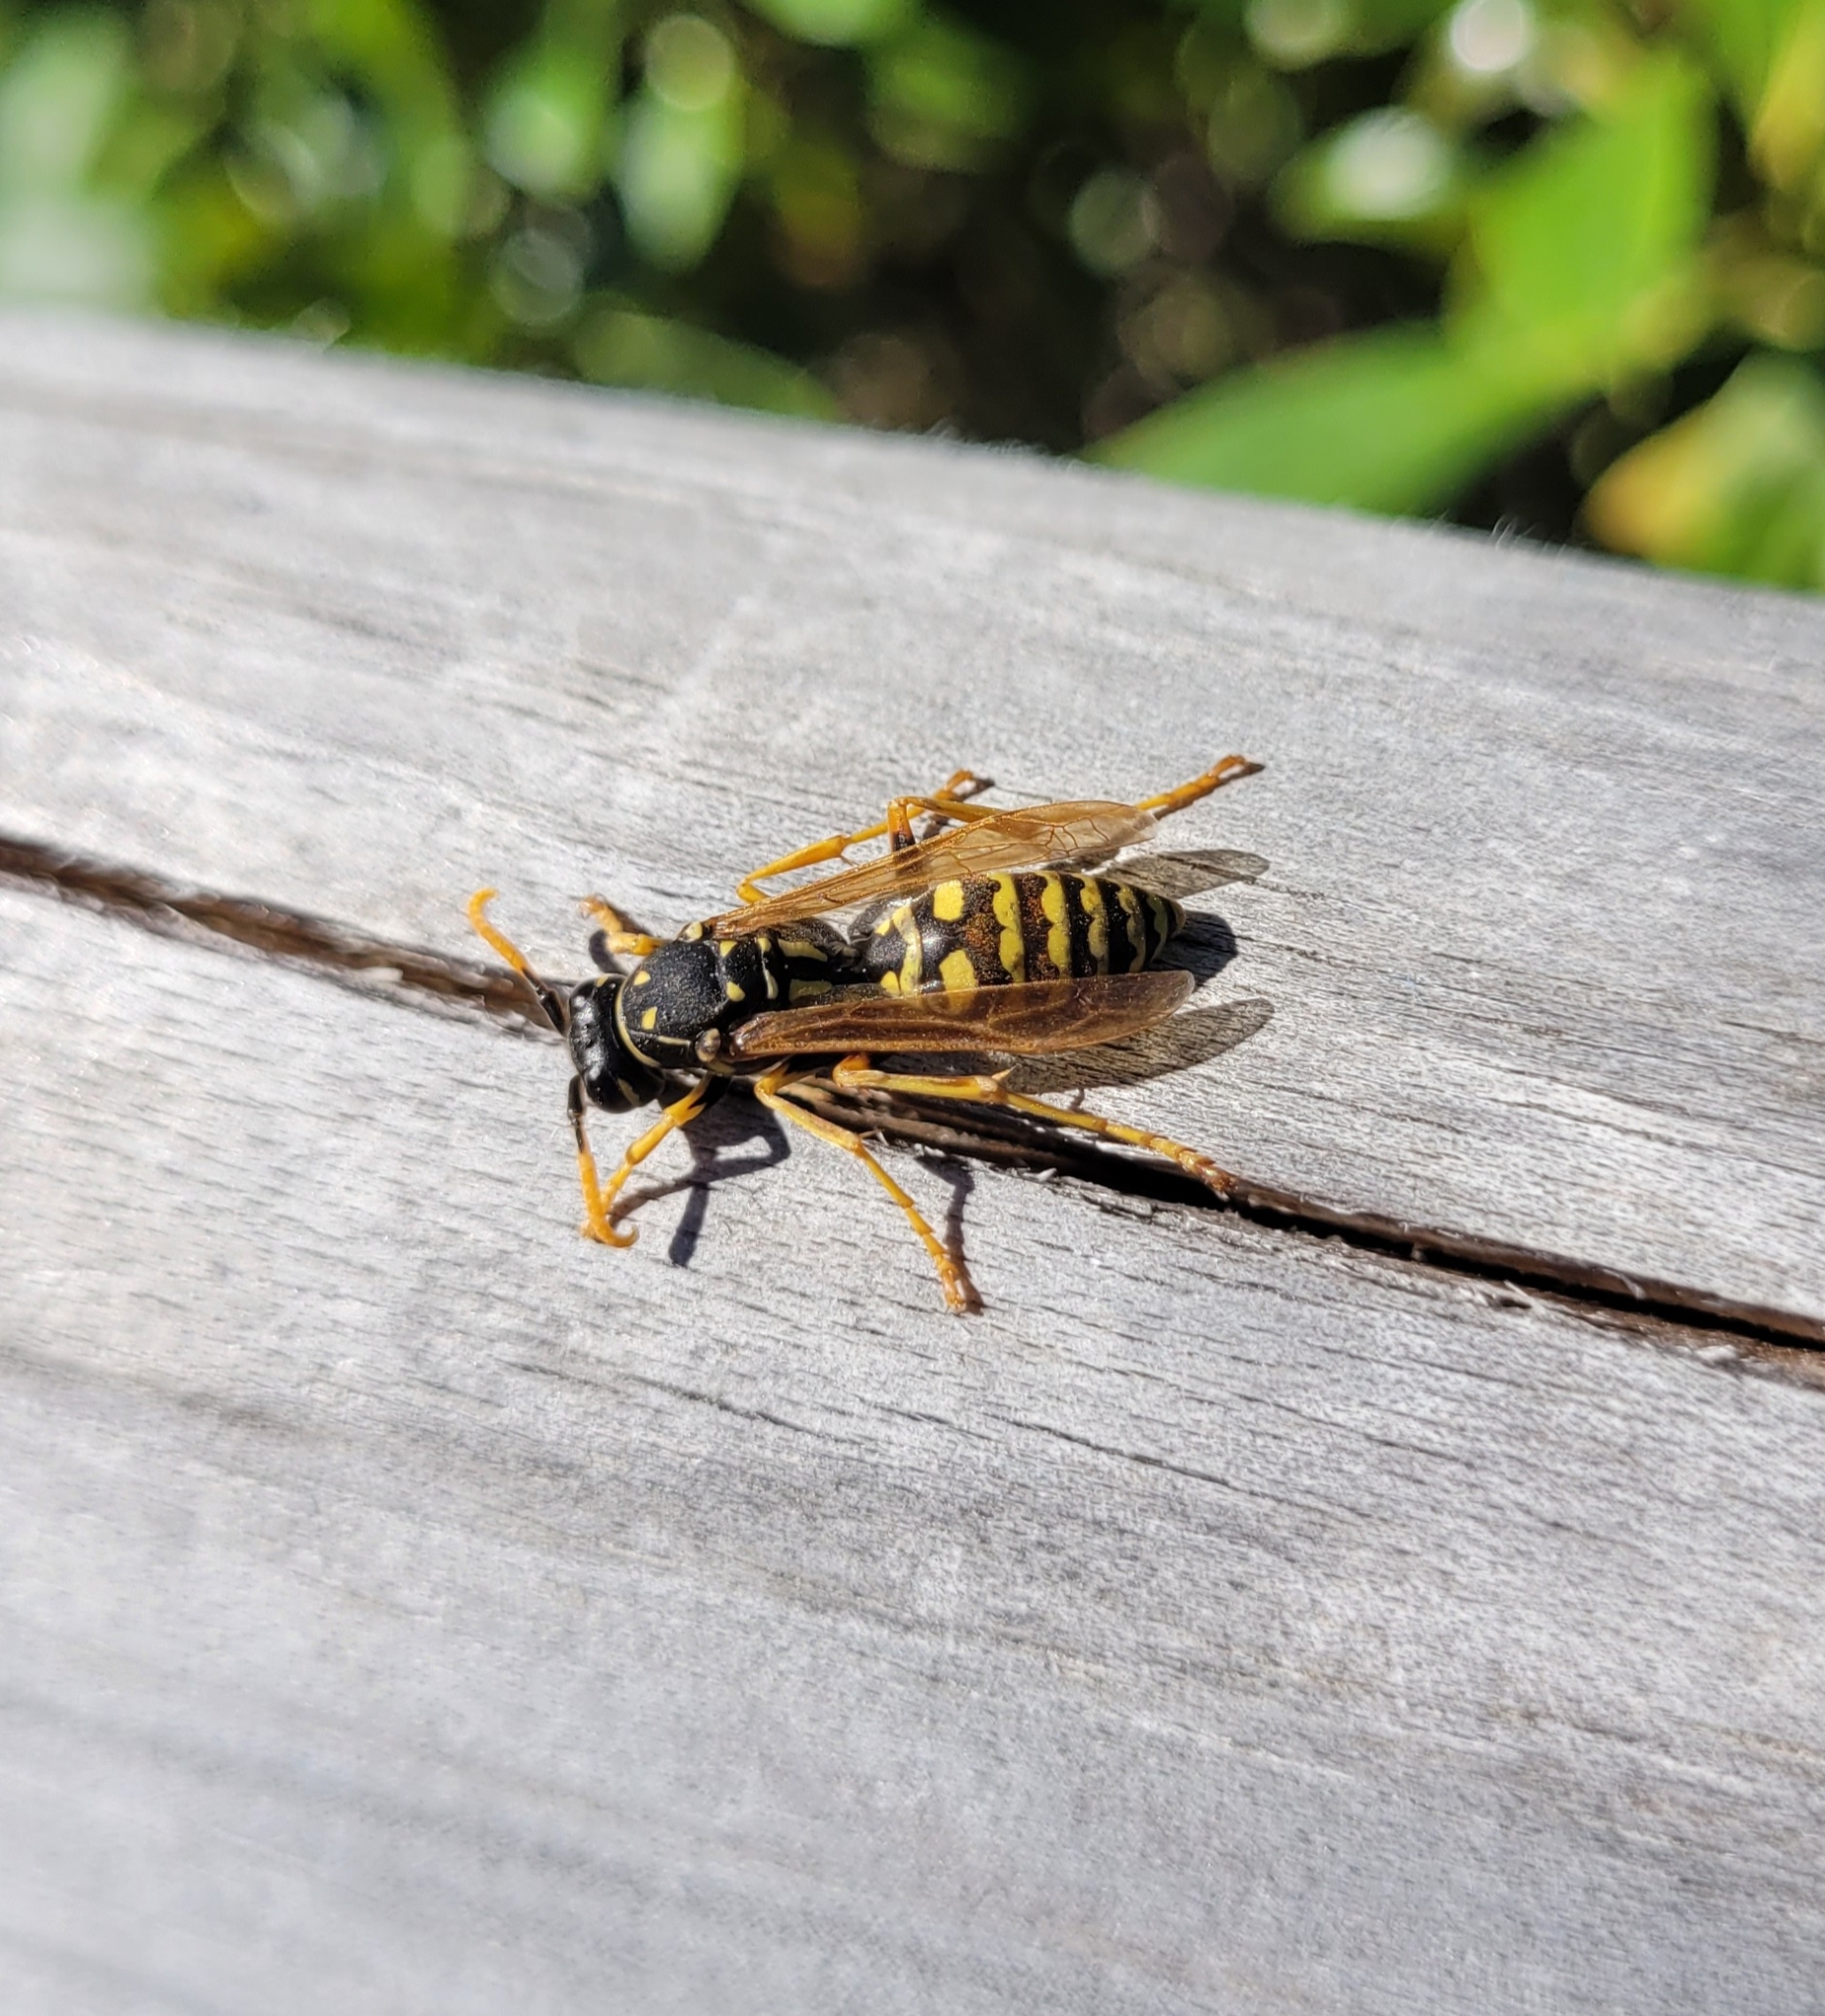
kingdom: Animalia
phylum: Arthropoda
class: Insecta
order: Hymenoptera
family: Eumenidae
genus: Polistes
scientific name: Polistes dominula
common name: Paper wasp
